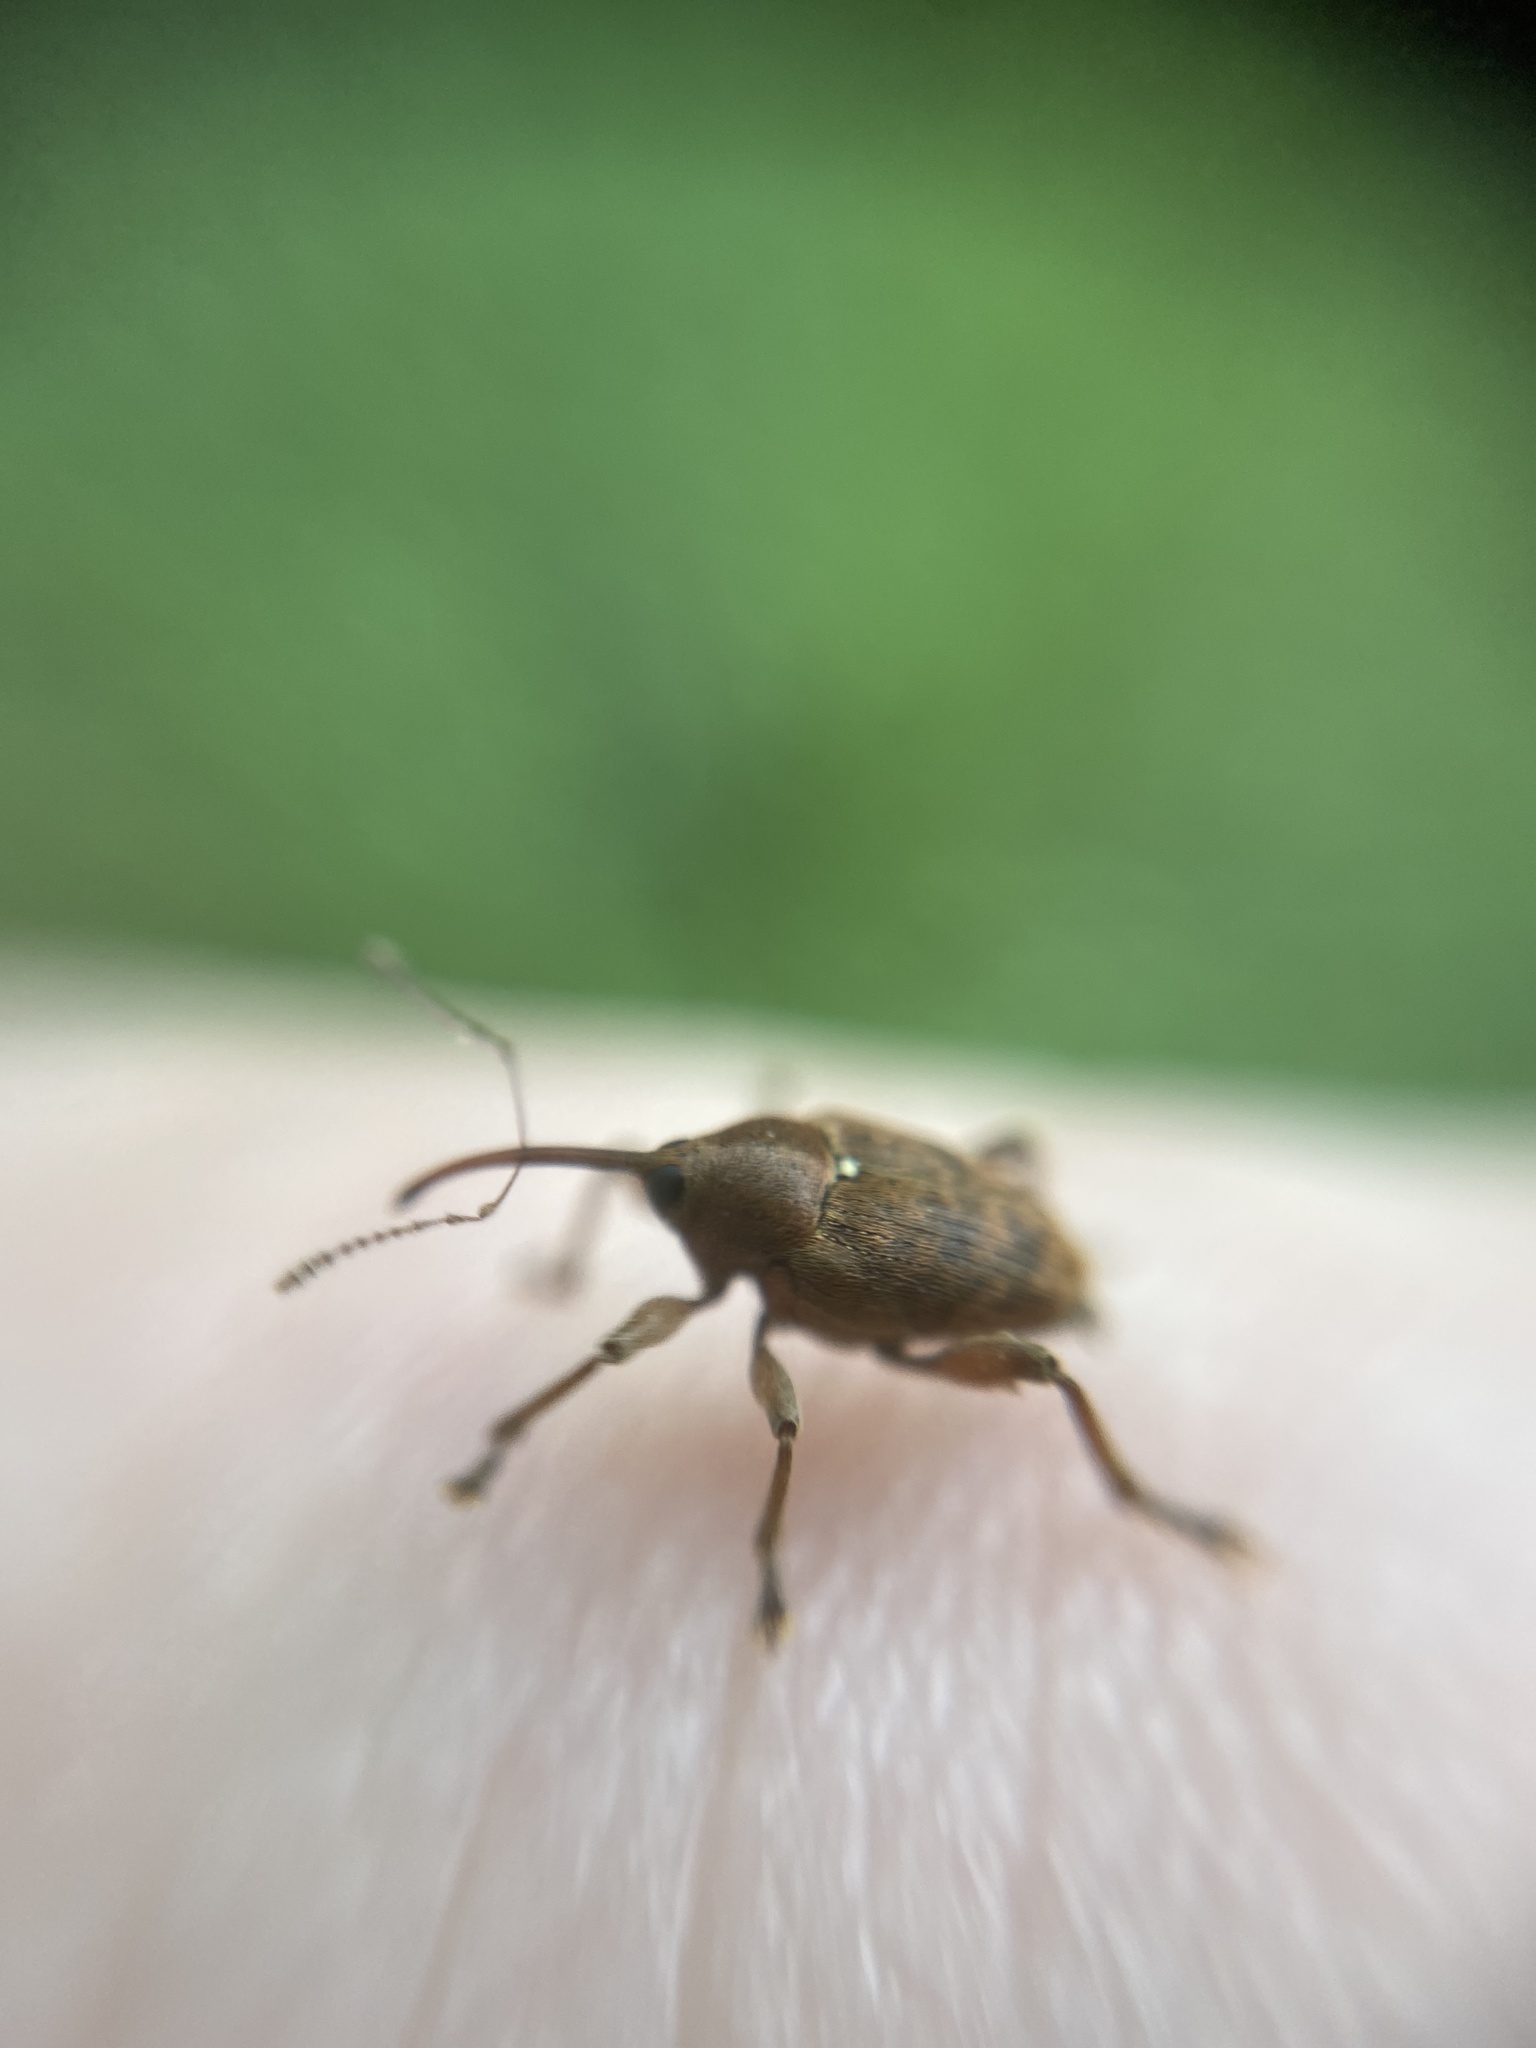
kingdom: Animalia
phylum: Arthropoda
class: Insecta
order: Coleoptera
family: Curculionidae
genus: Curculio
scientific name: Curculio glandium
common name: Acorn weevil
